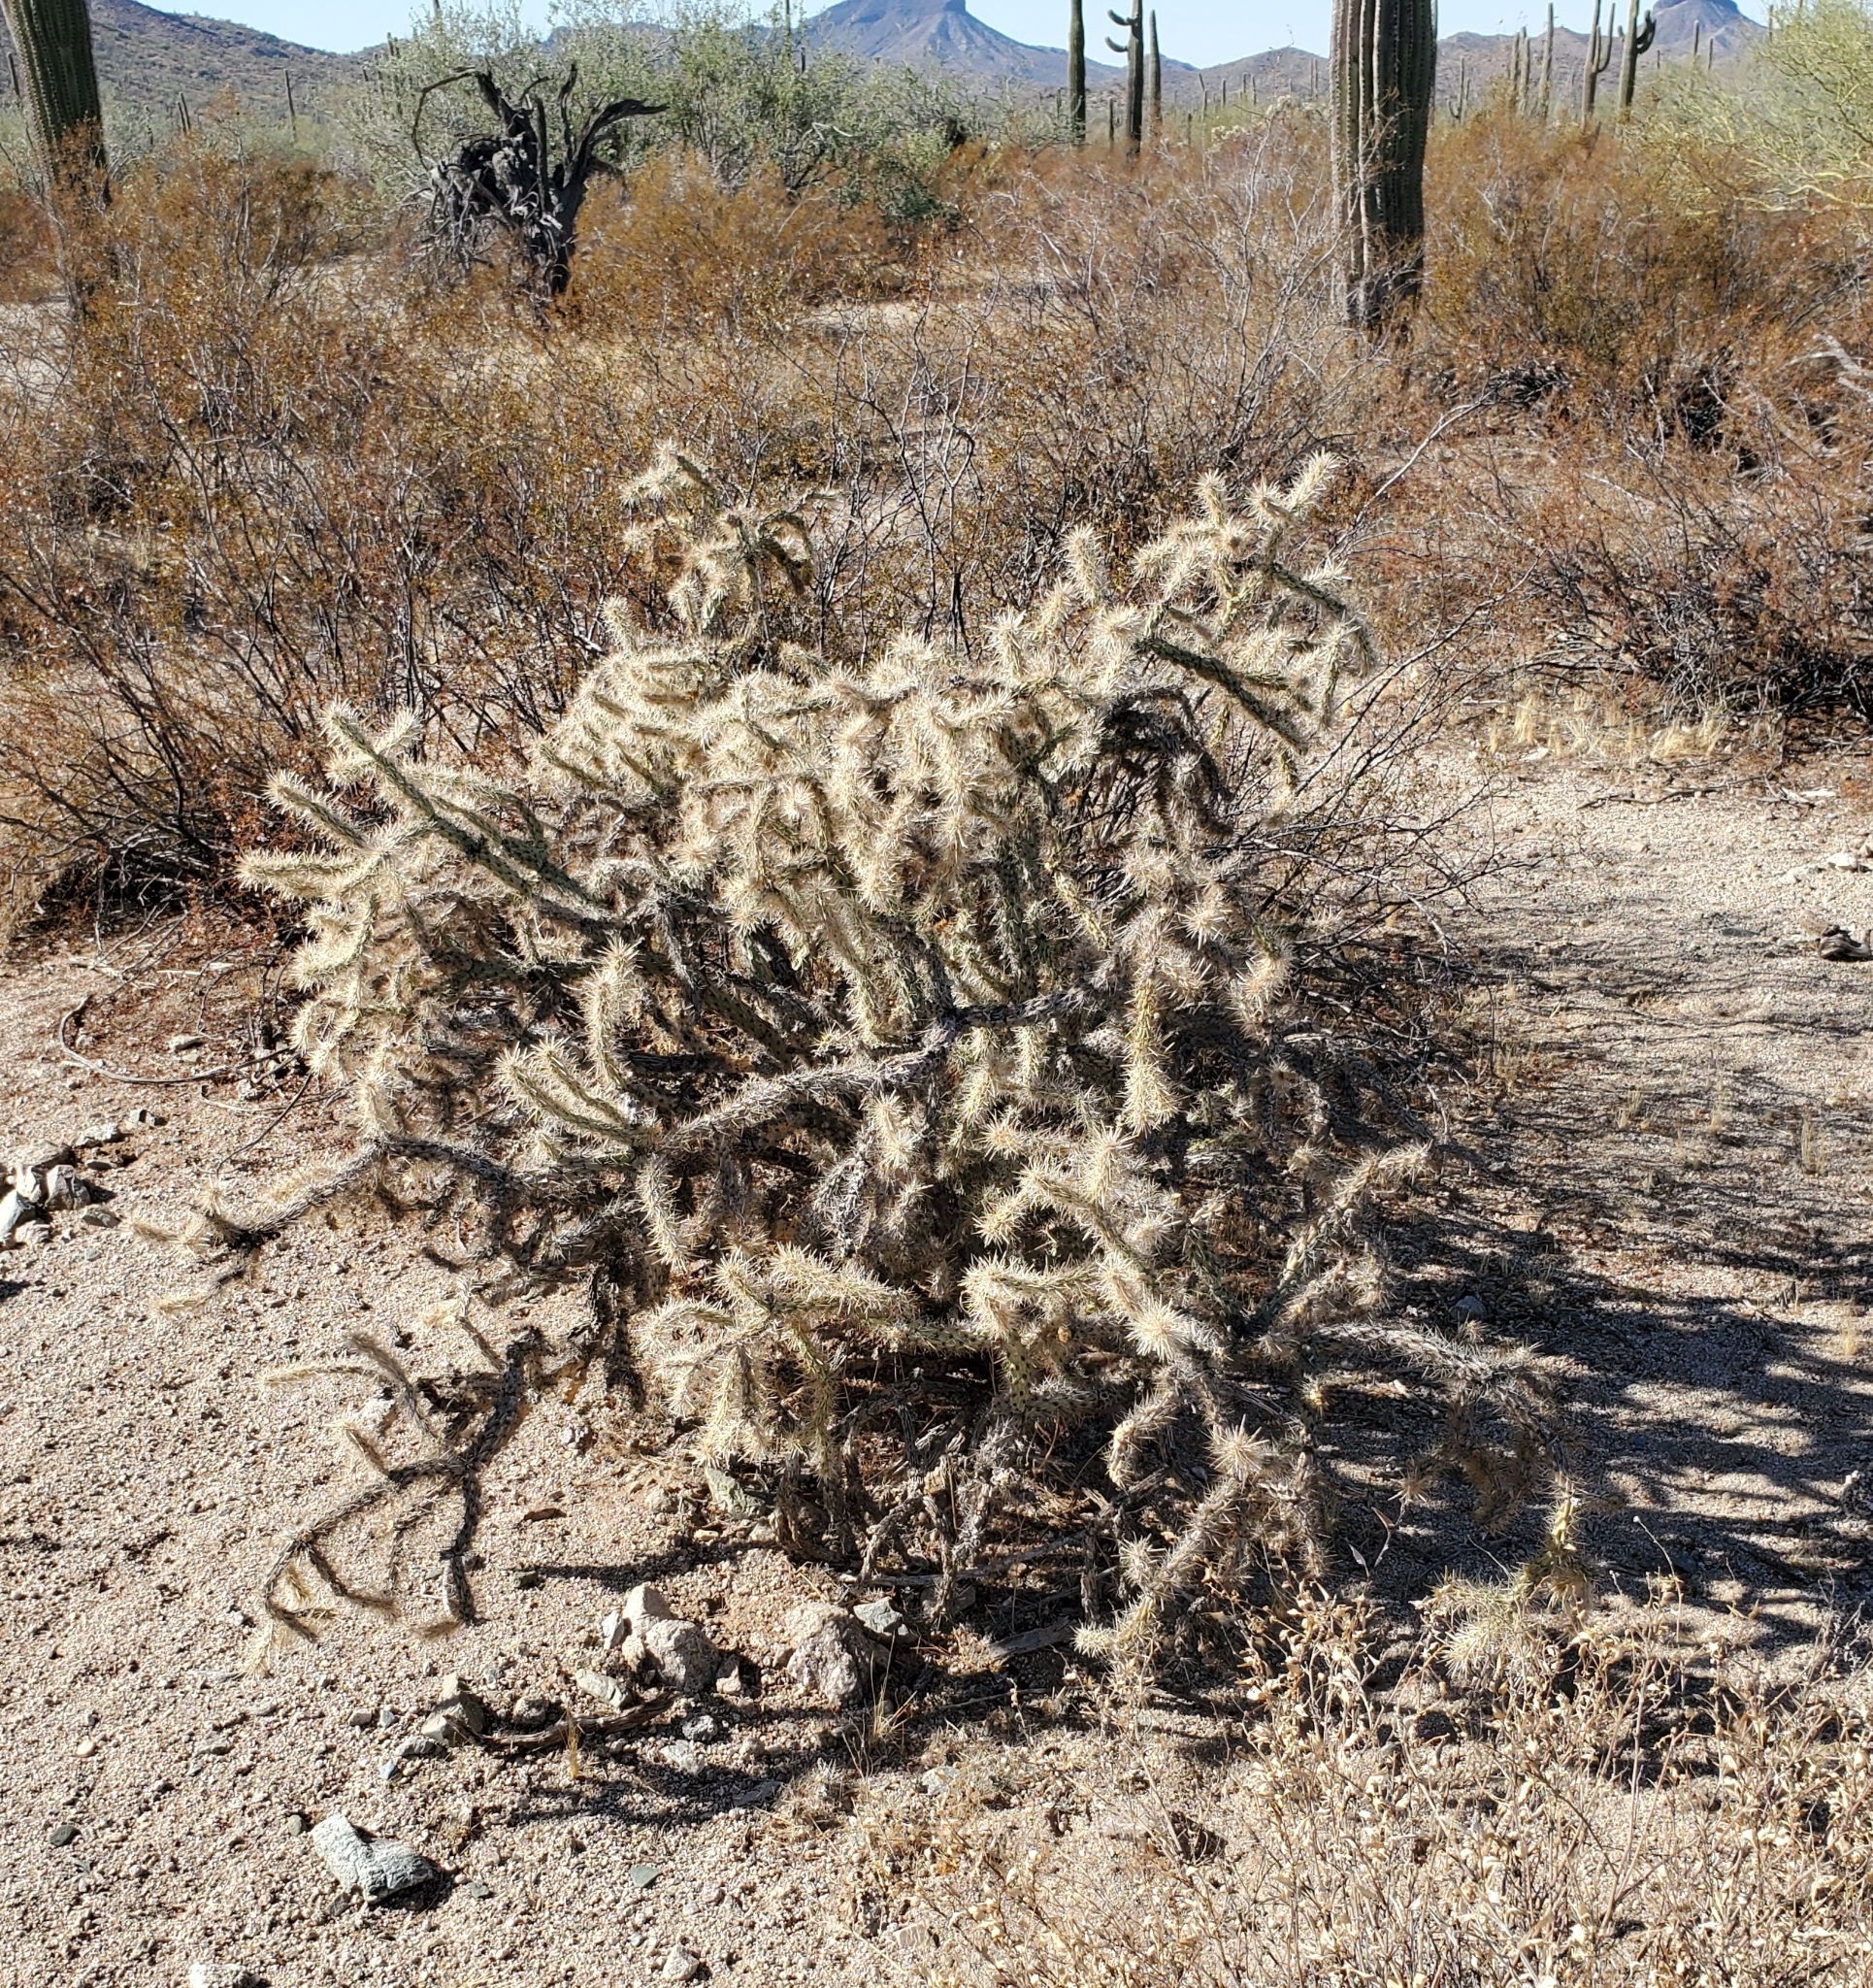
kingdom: Plantae
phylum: Tracheophyta
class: Magnoliopsida
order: Caryophyllales
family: Cactaceae
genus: Cylindropuntia
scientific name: Cylindropuntia acanthocarpa
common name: Buckhorn cholla
